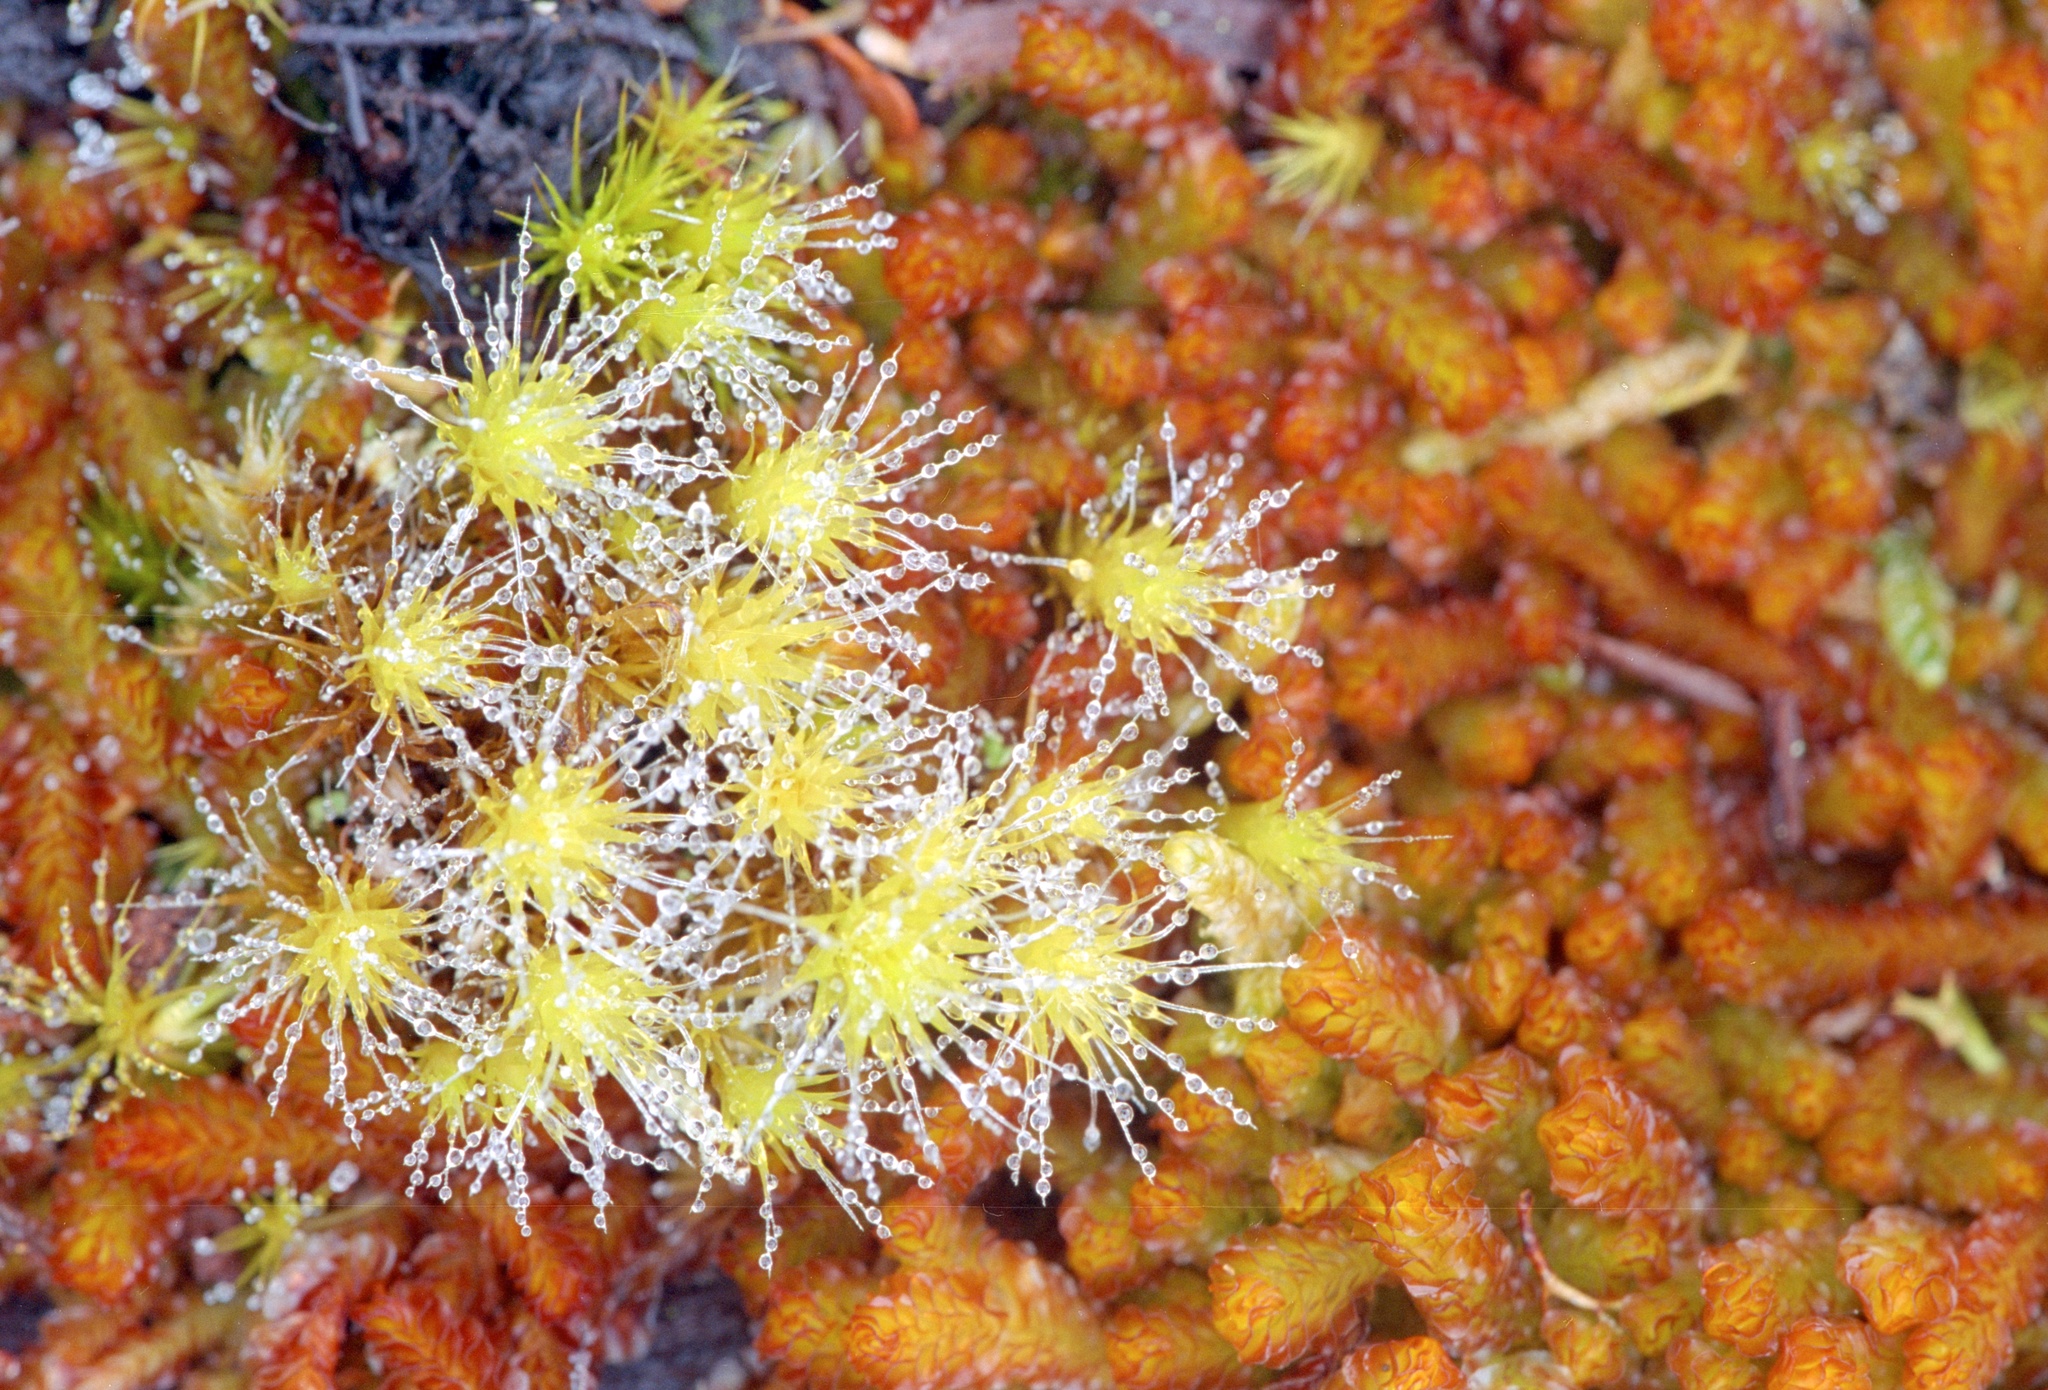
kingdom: Plantae
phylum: Bryophyta
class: Bryopsida
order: Bartramiales
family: Bartramiaceae
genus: Breutelia
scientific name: Breutelia
